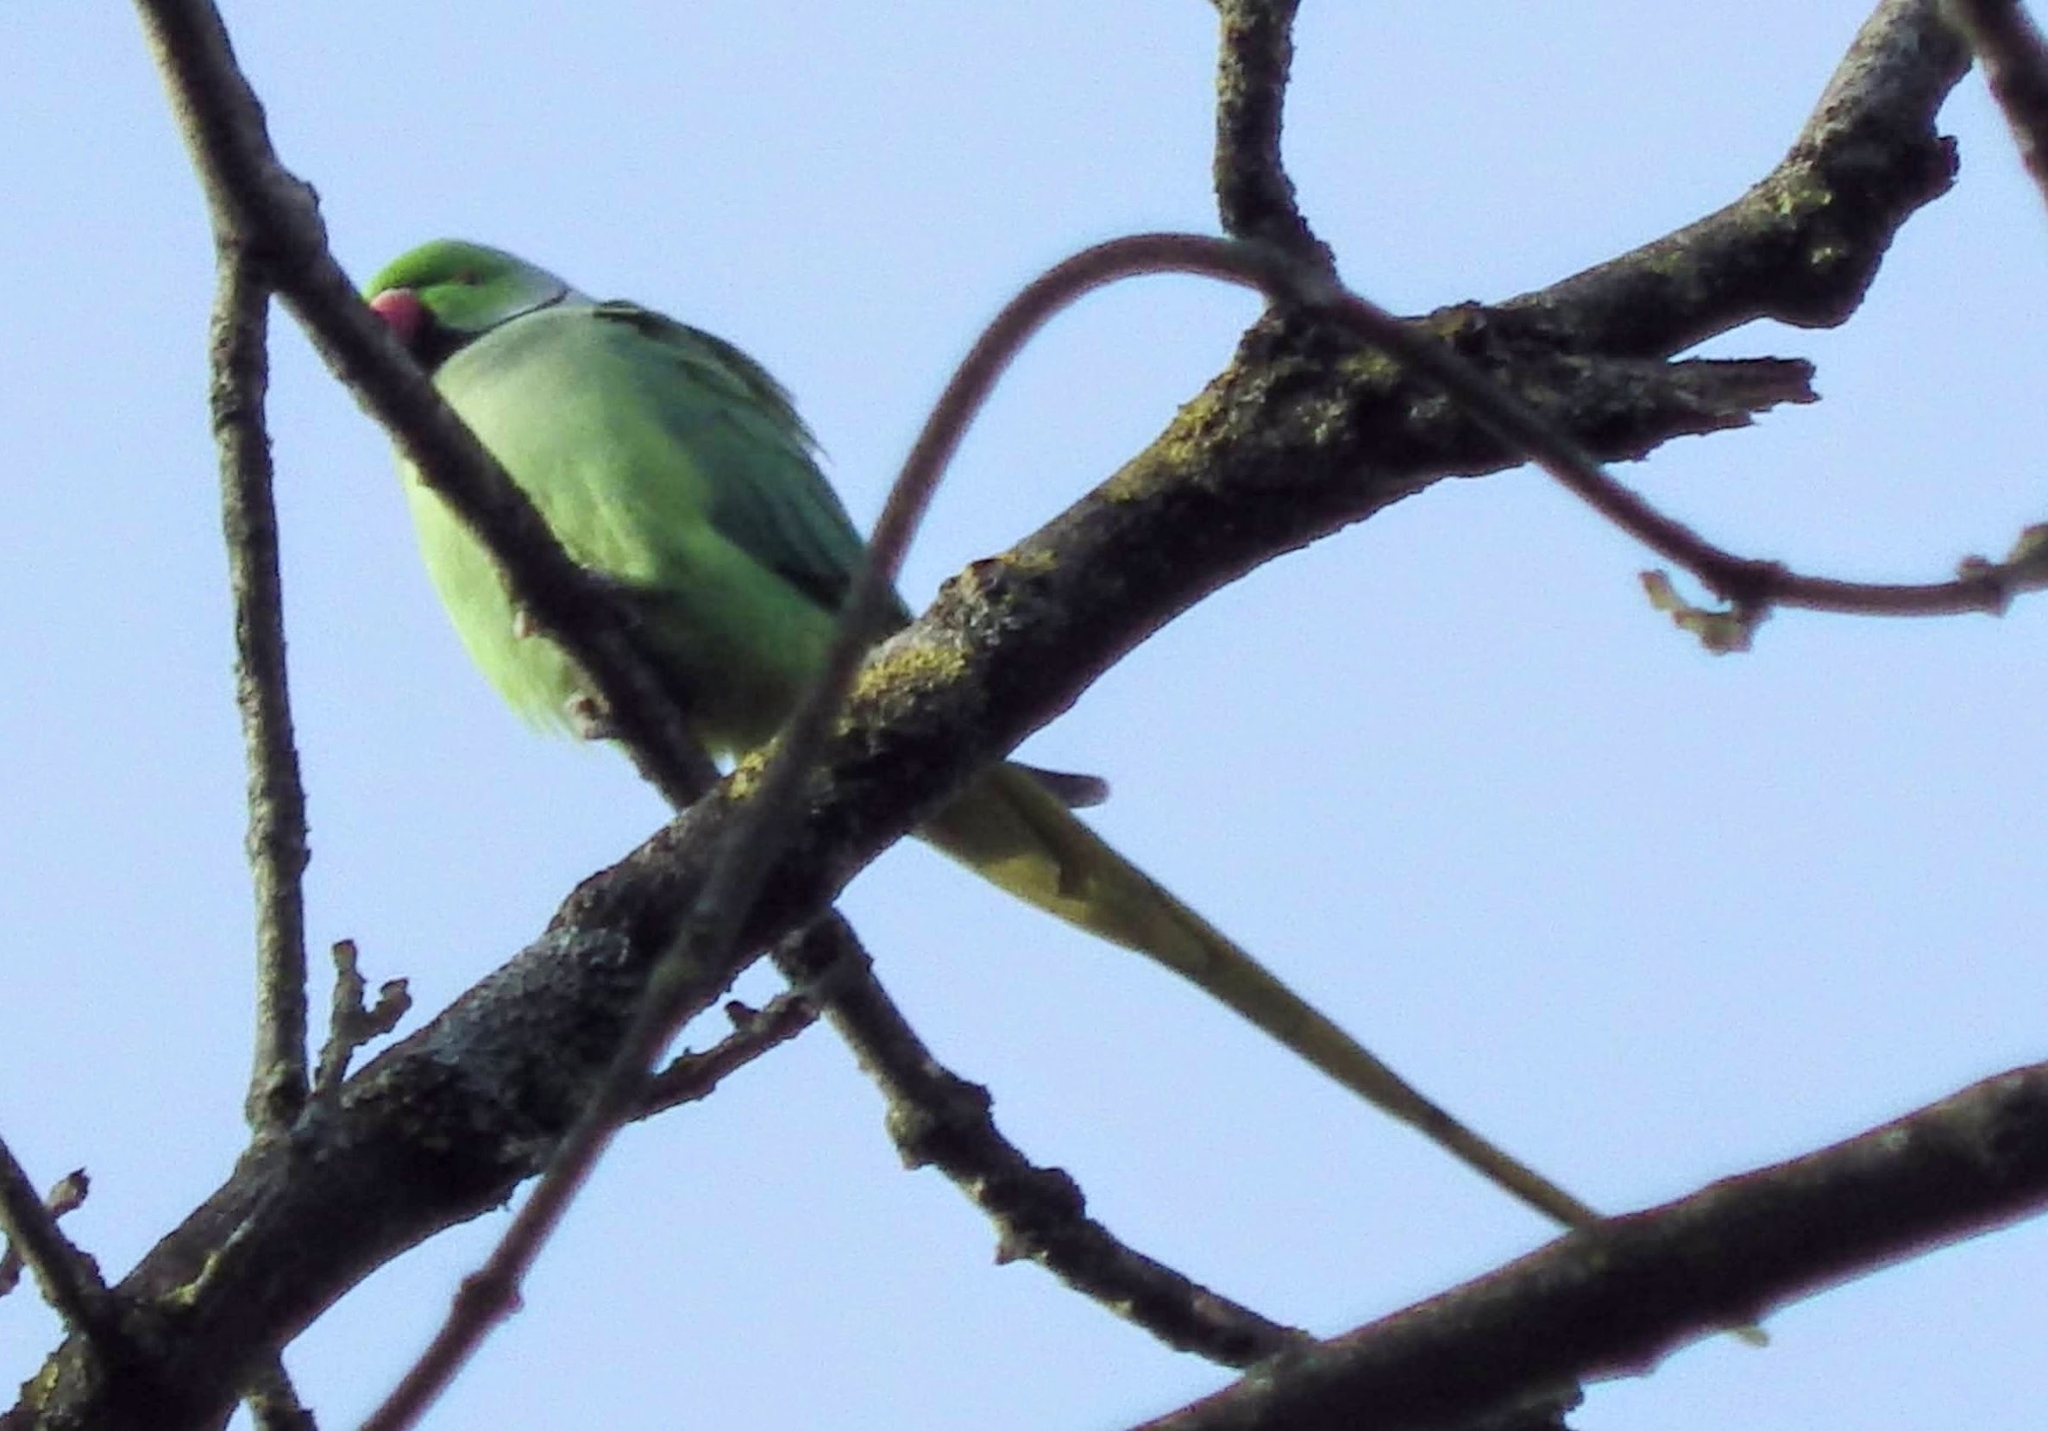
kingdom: Animalia
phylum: Chordata
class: Aves
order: Psittaciformes
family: Psittacidae
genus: Psittacula
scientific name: Psittacula krameri
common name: Rose-ringed parakeet
